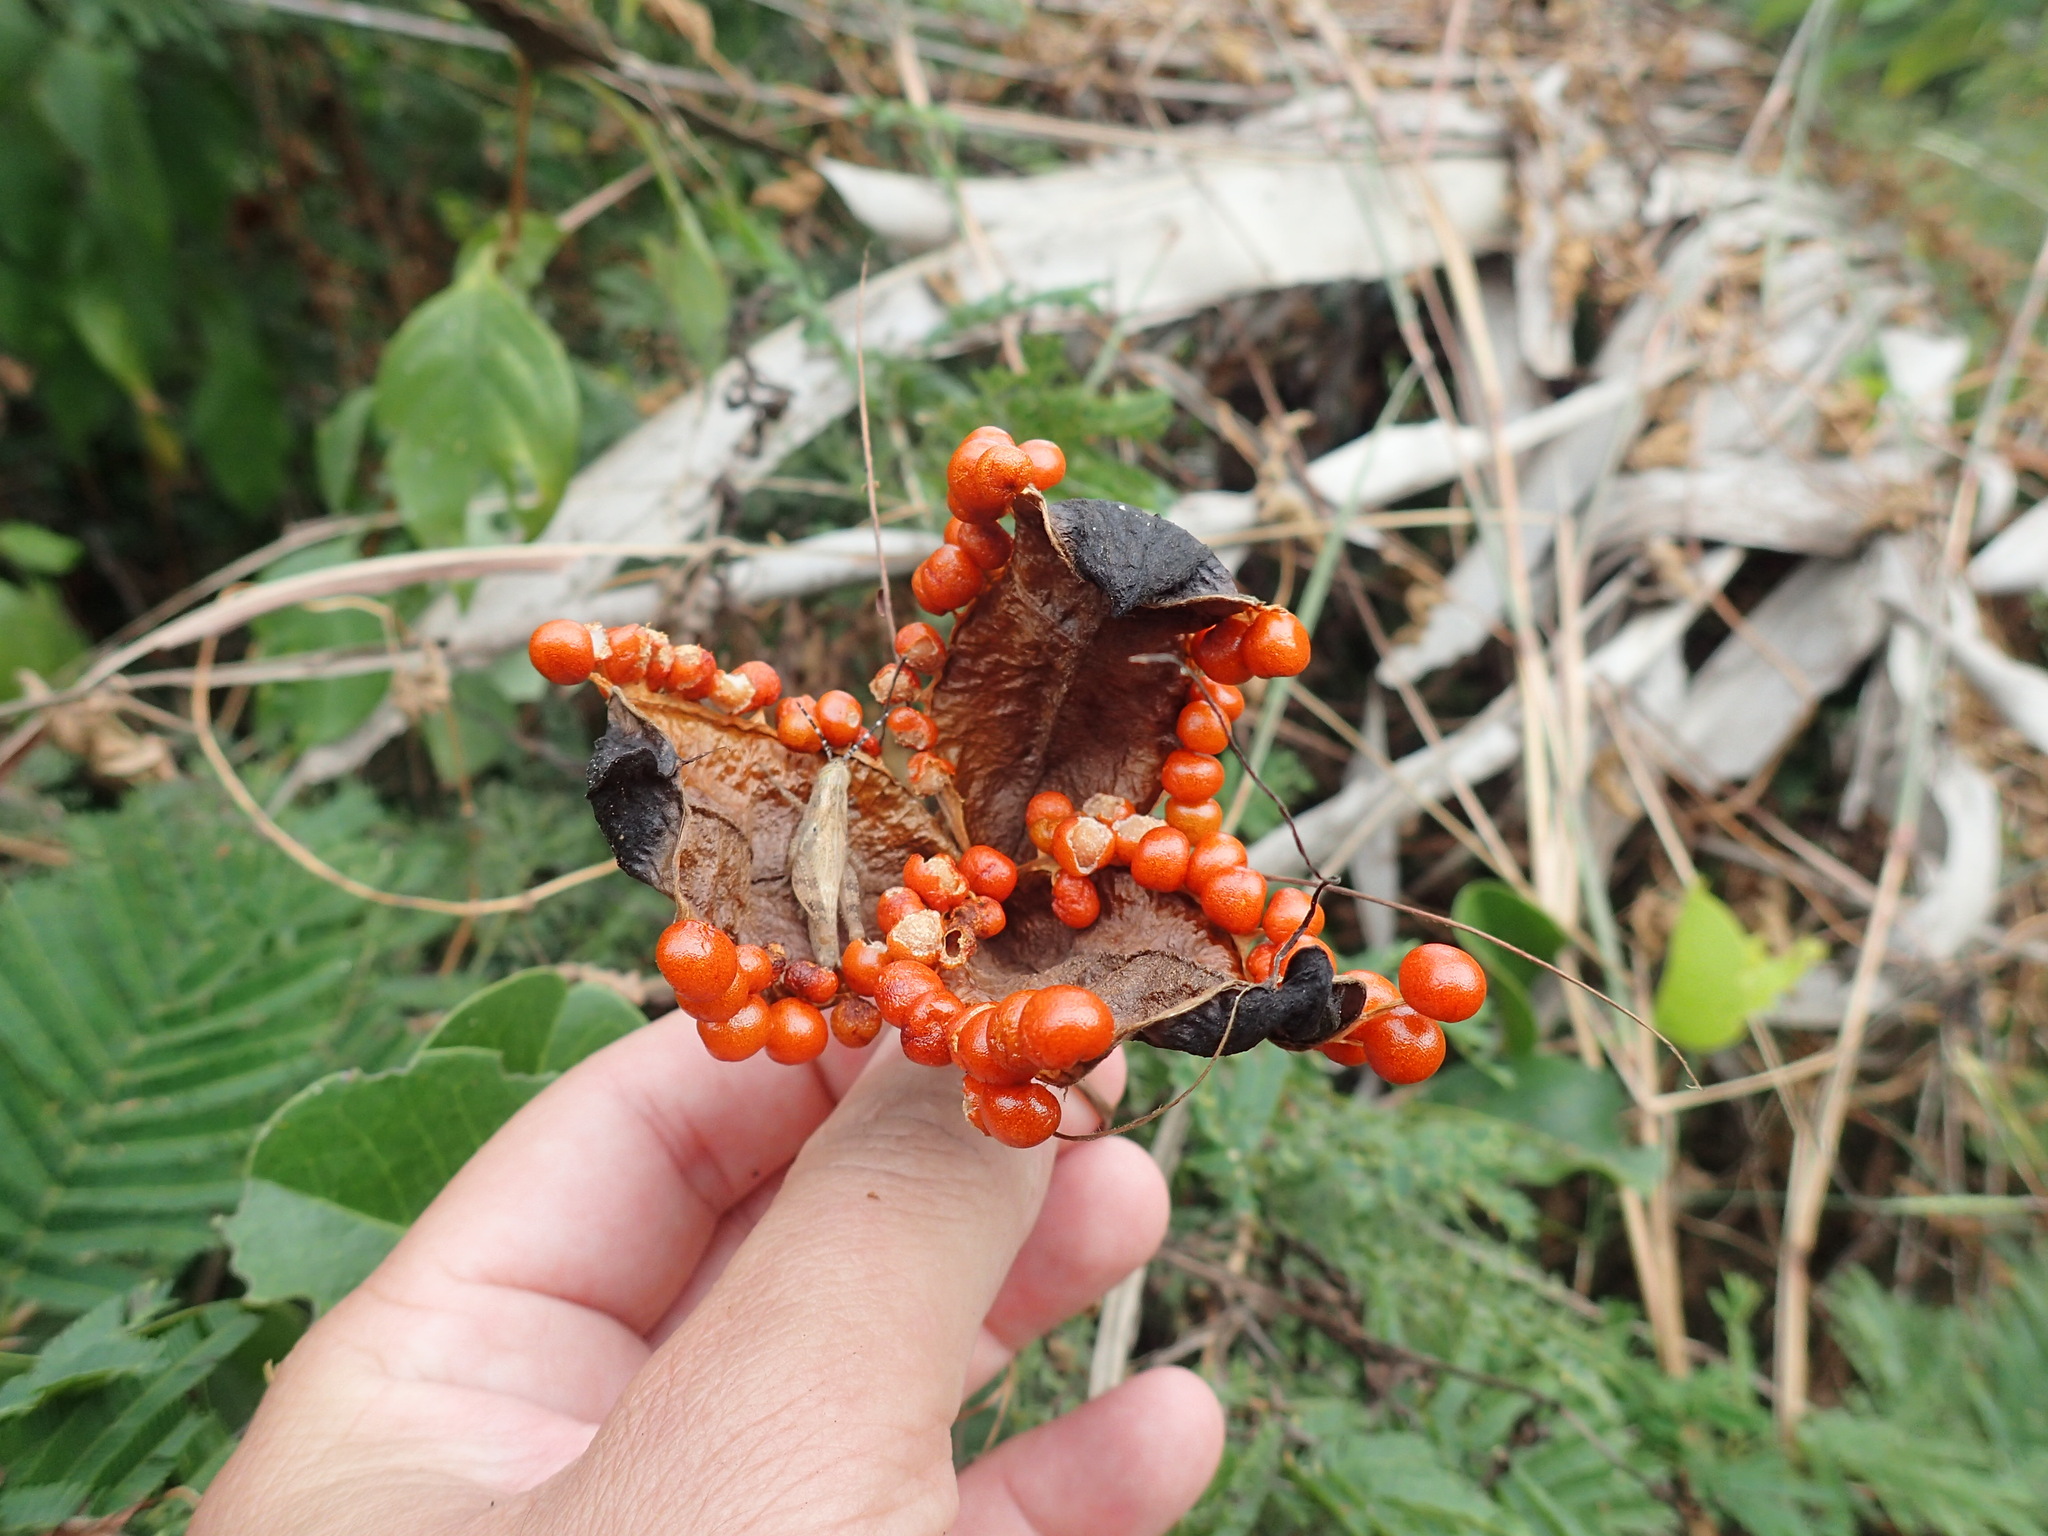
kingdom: Plantae
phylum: Tracheophyta
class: Magnoliopsida
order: Fabales
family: Fabaceae
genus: Abrus
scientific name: Abrus precatorius
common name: Rosarypea
